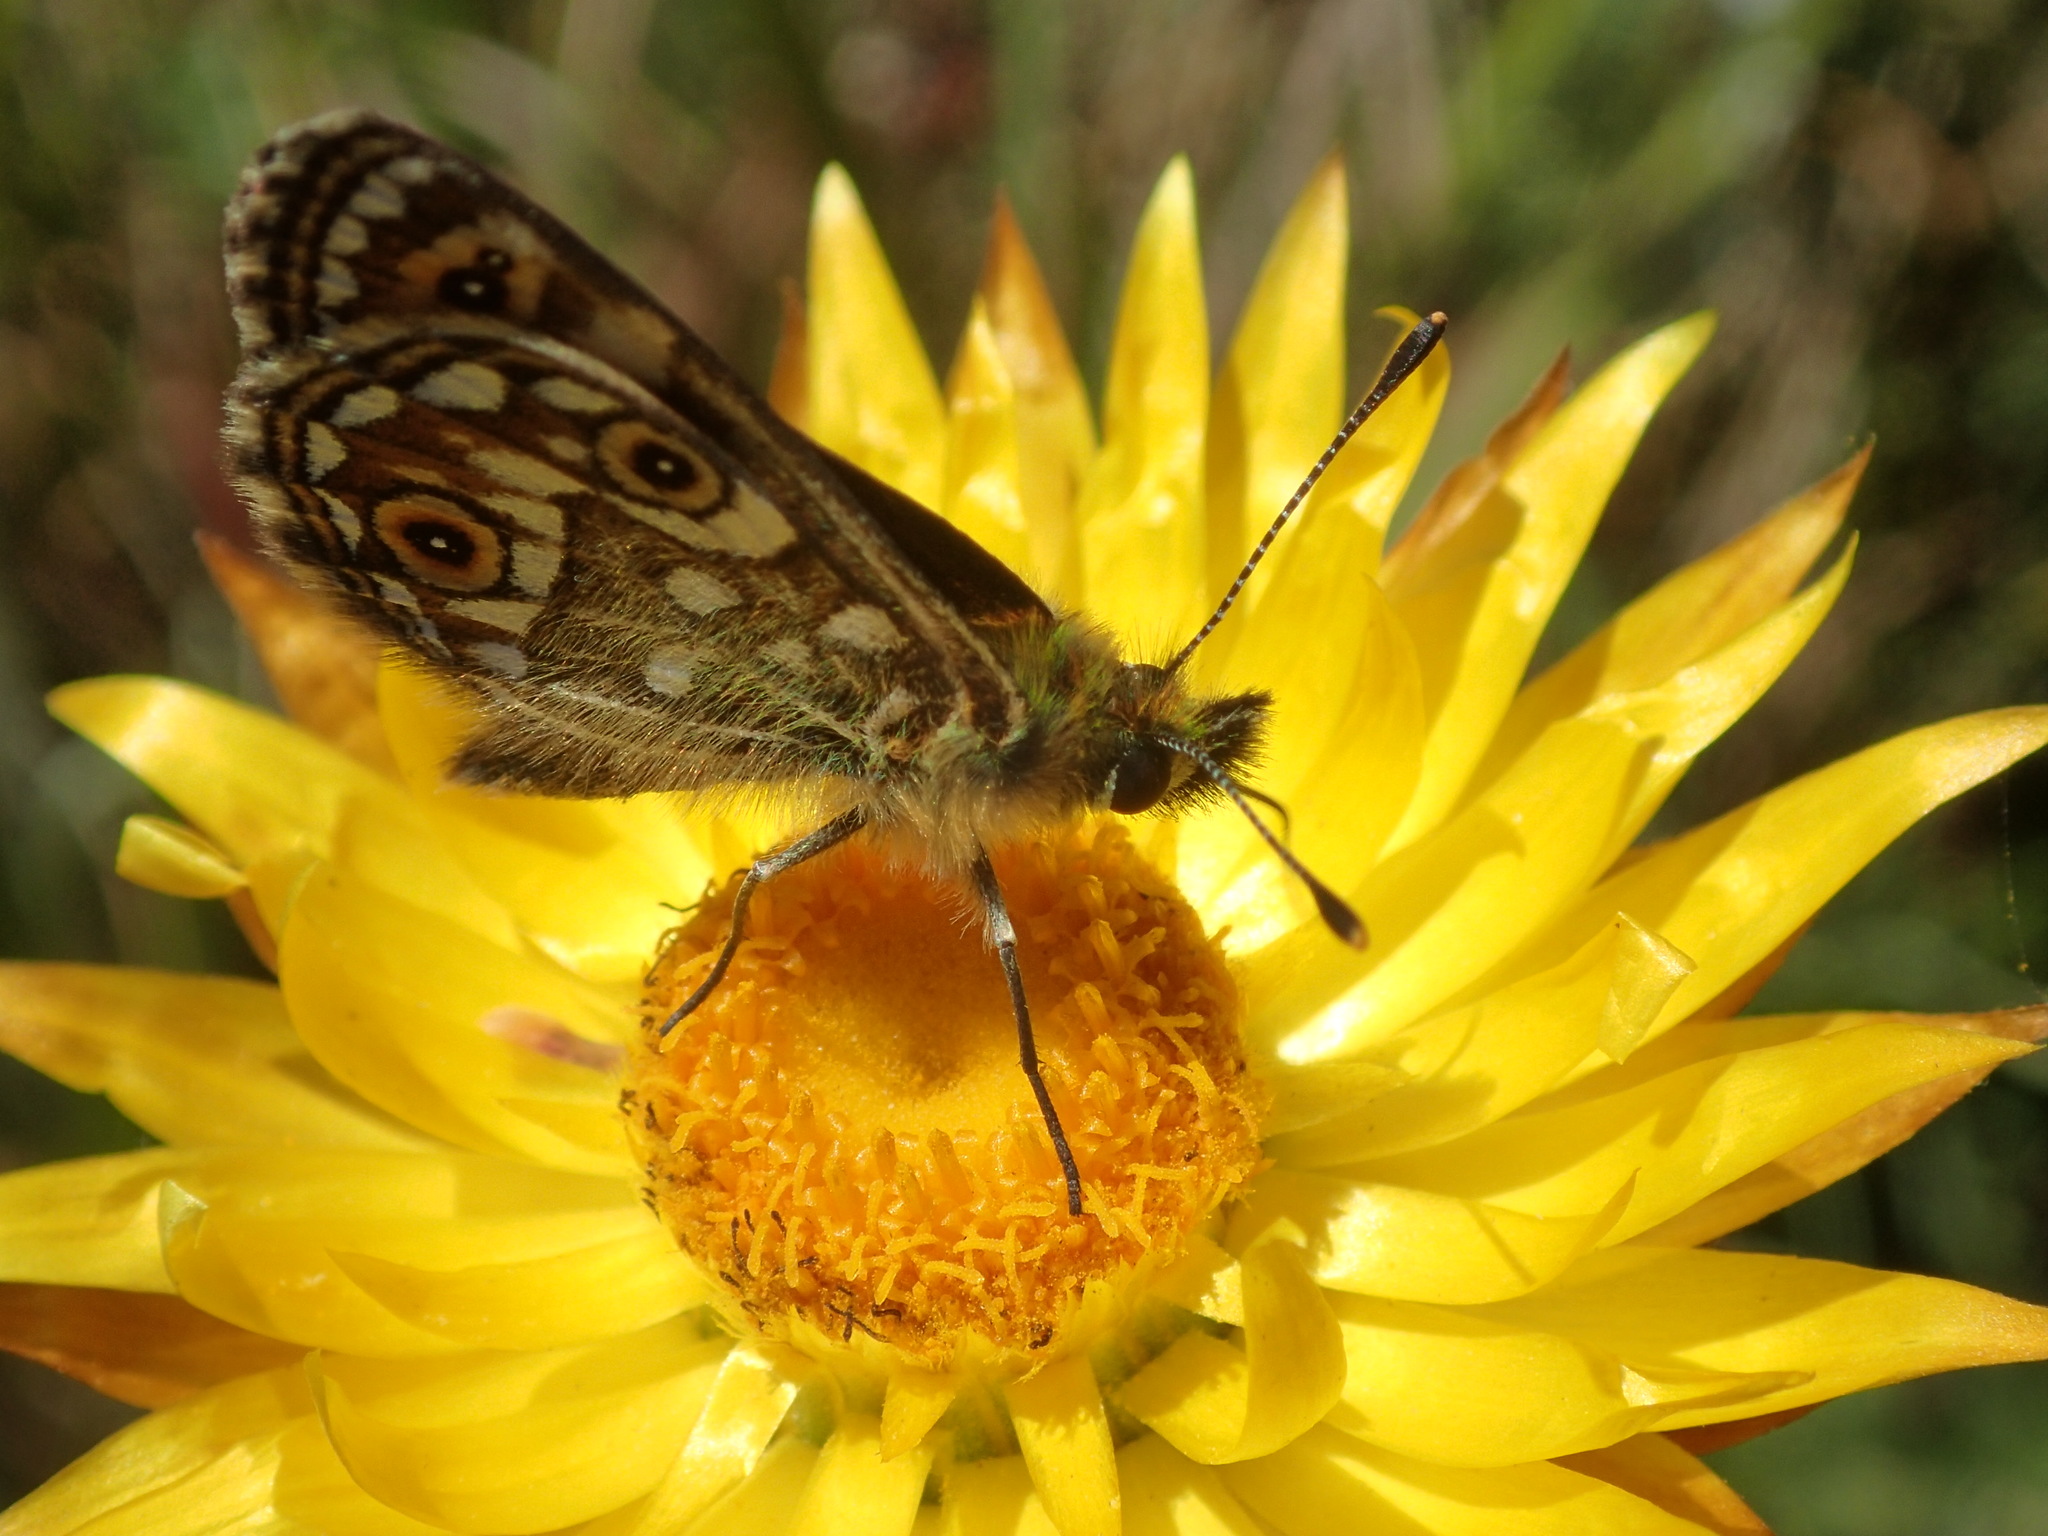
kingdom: Animalia
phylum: Arthropoda
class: Insecta
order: Lepidoptera
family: Nymphalidae
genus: Oreixenica
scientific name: Oreixenica orichora
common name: Orichora brown
